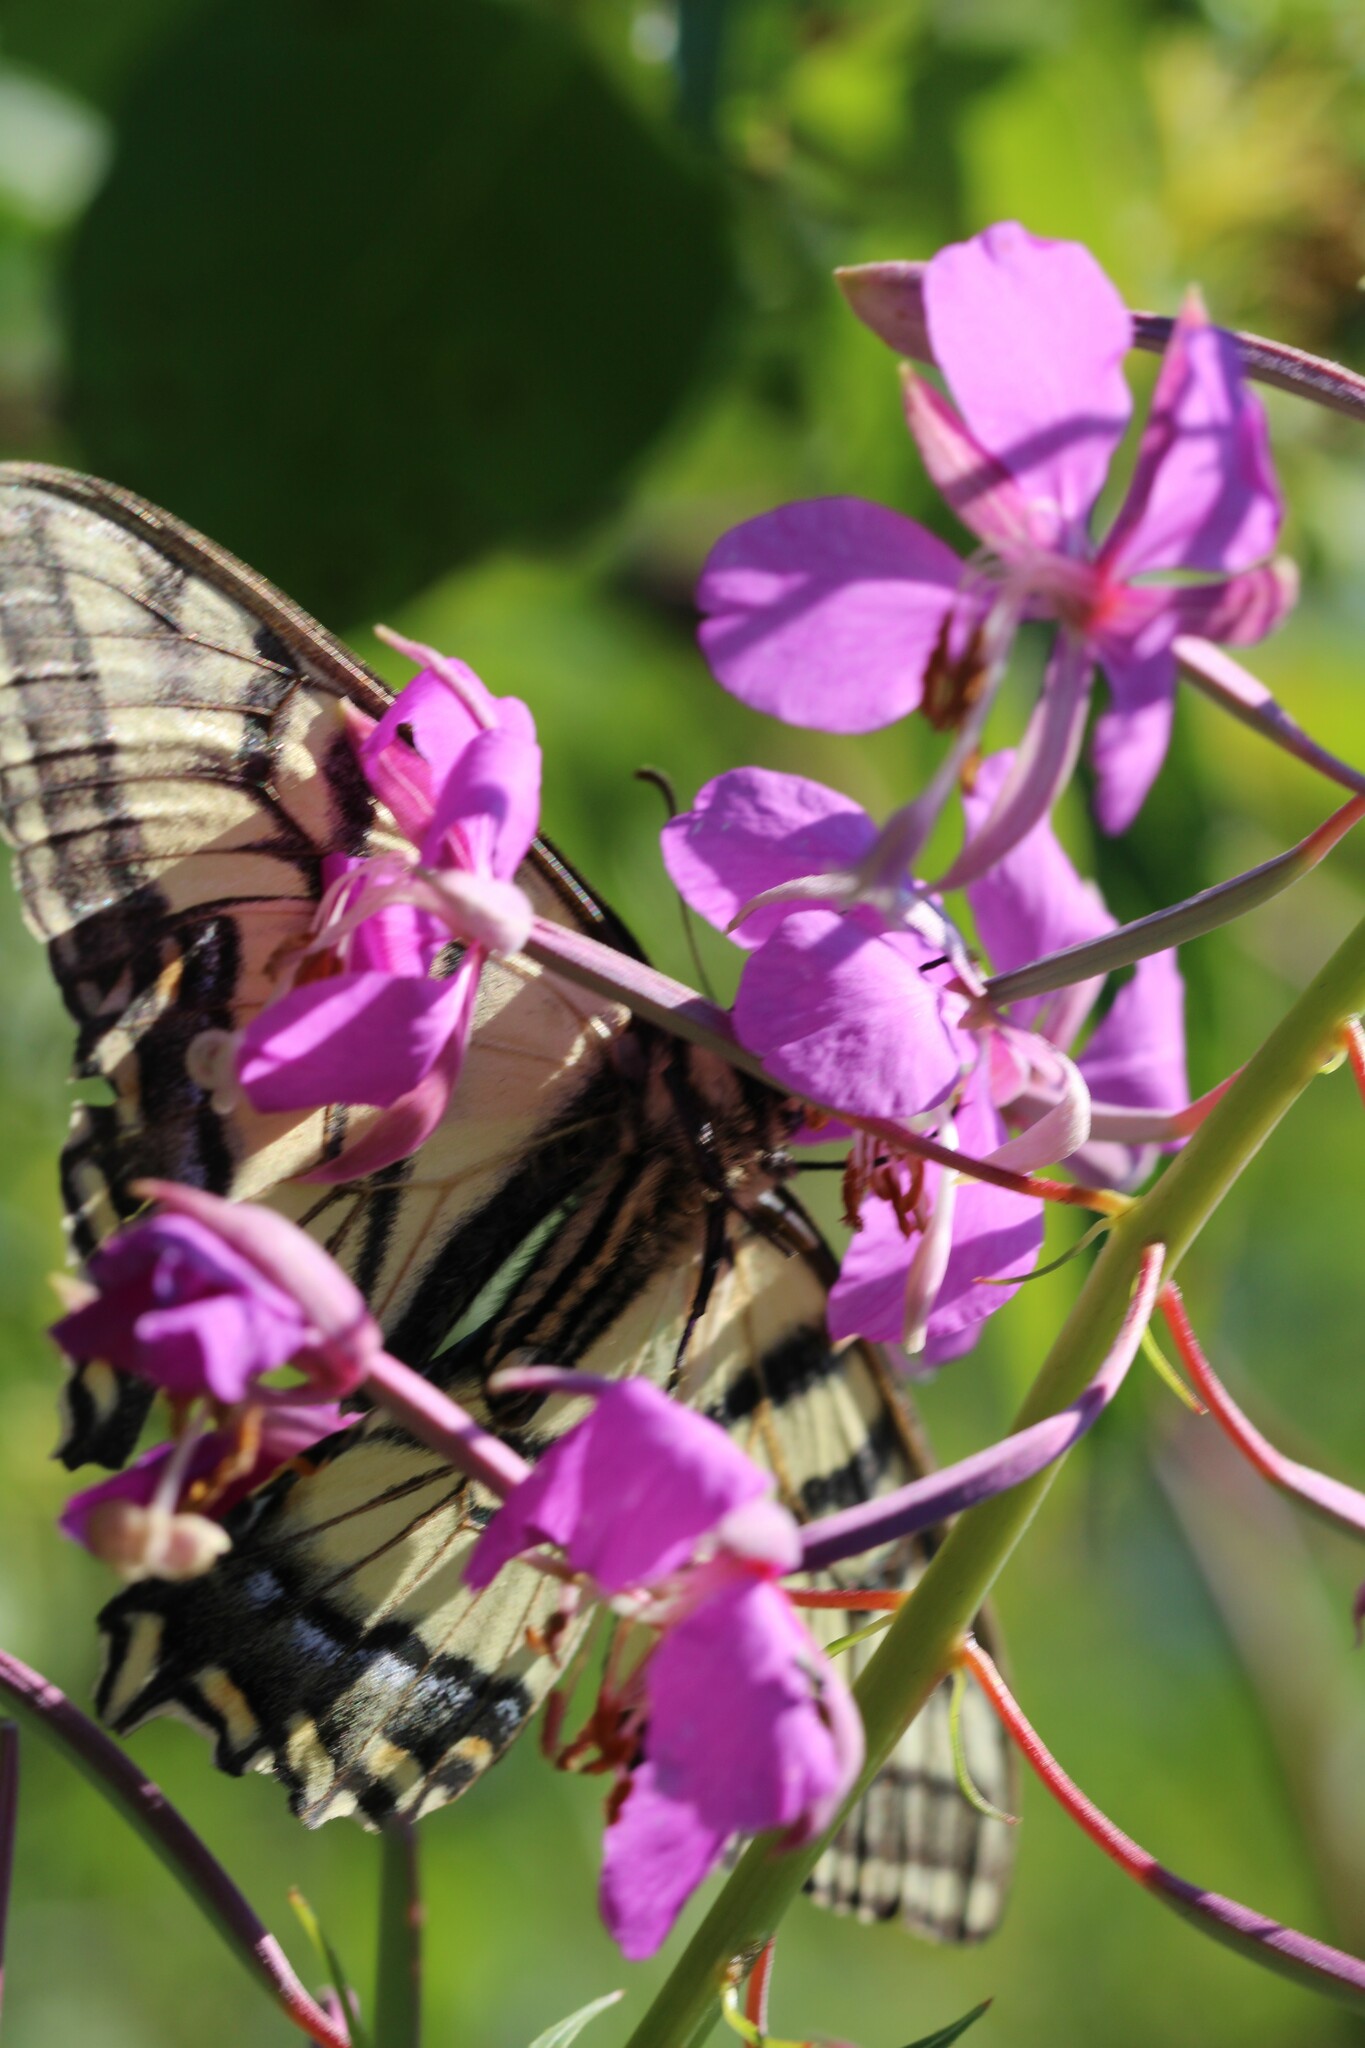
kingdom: Animalia
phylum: Arthropoda
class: Insecta
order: Lepidoptera
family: Papilionidae
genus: Papilio
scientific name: Papilio canadensis
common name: Canadian tiger swallowtail
